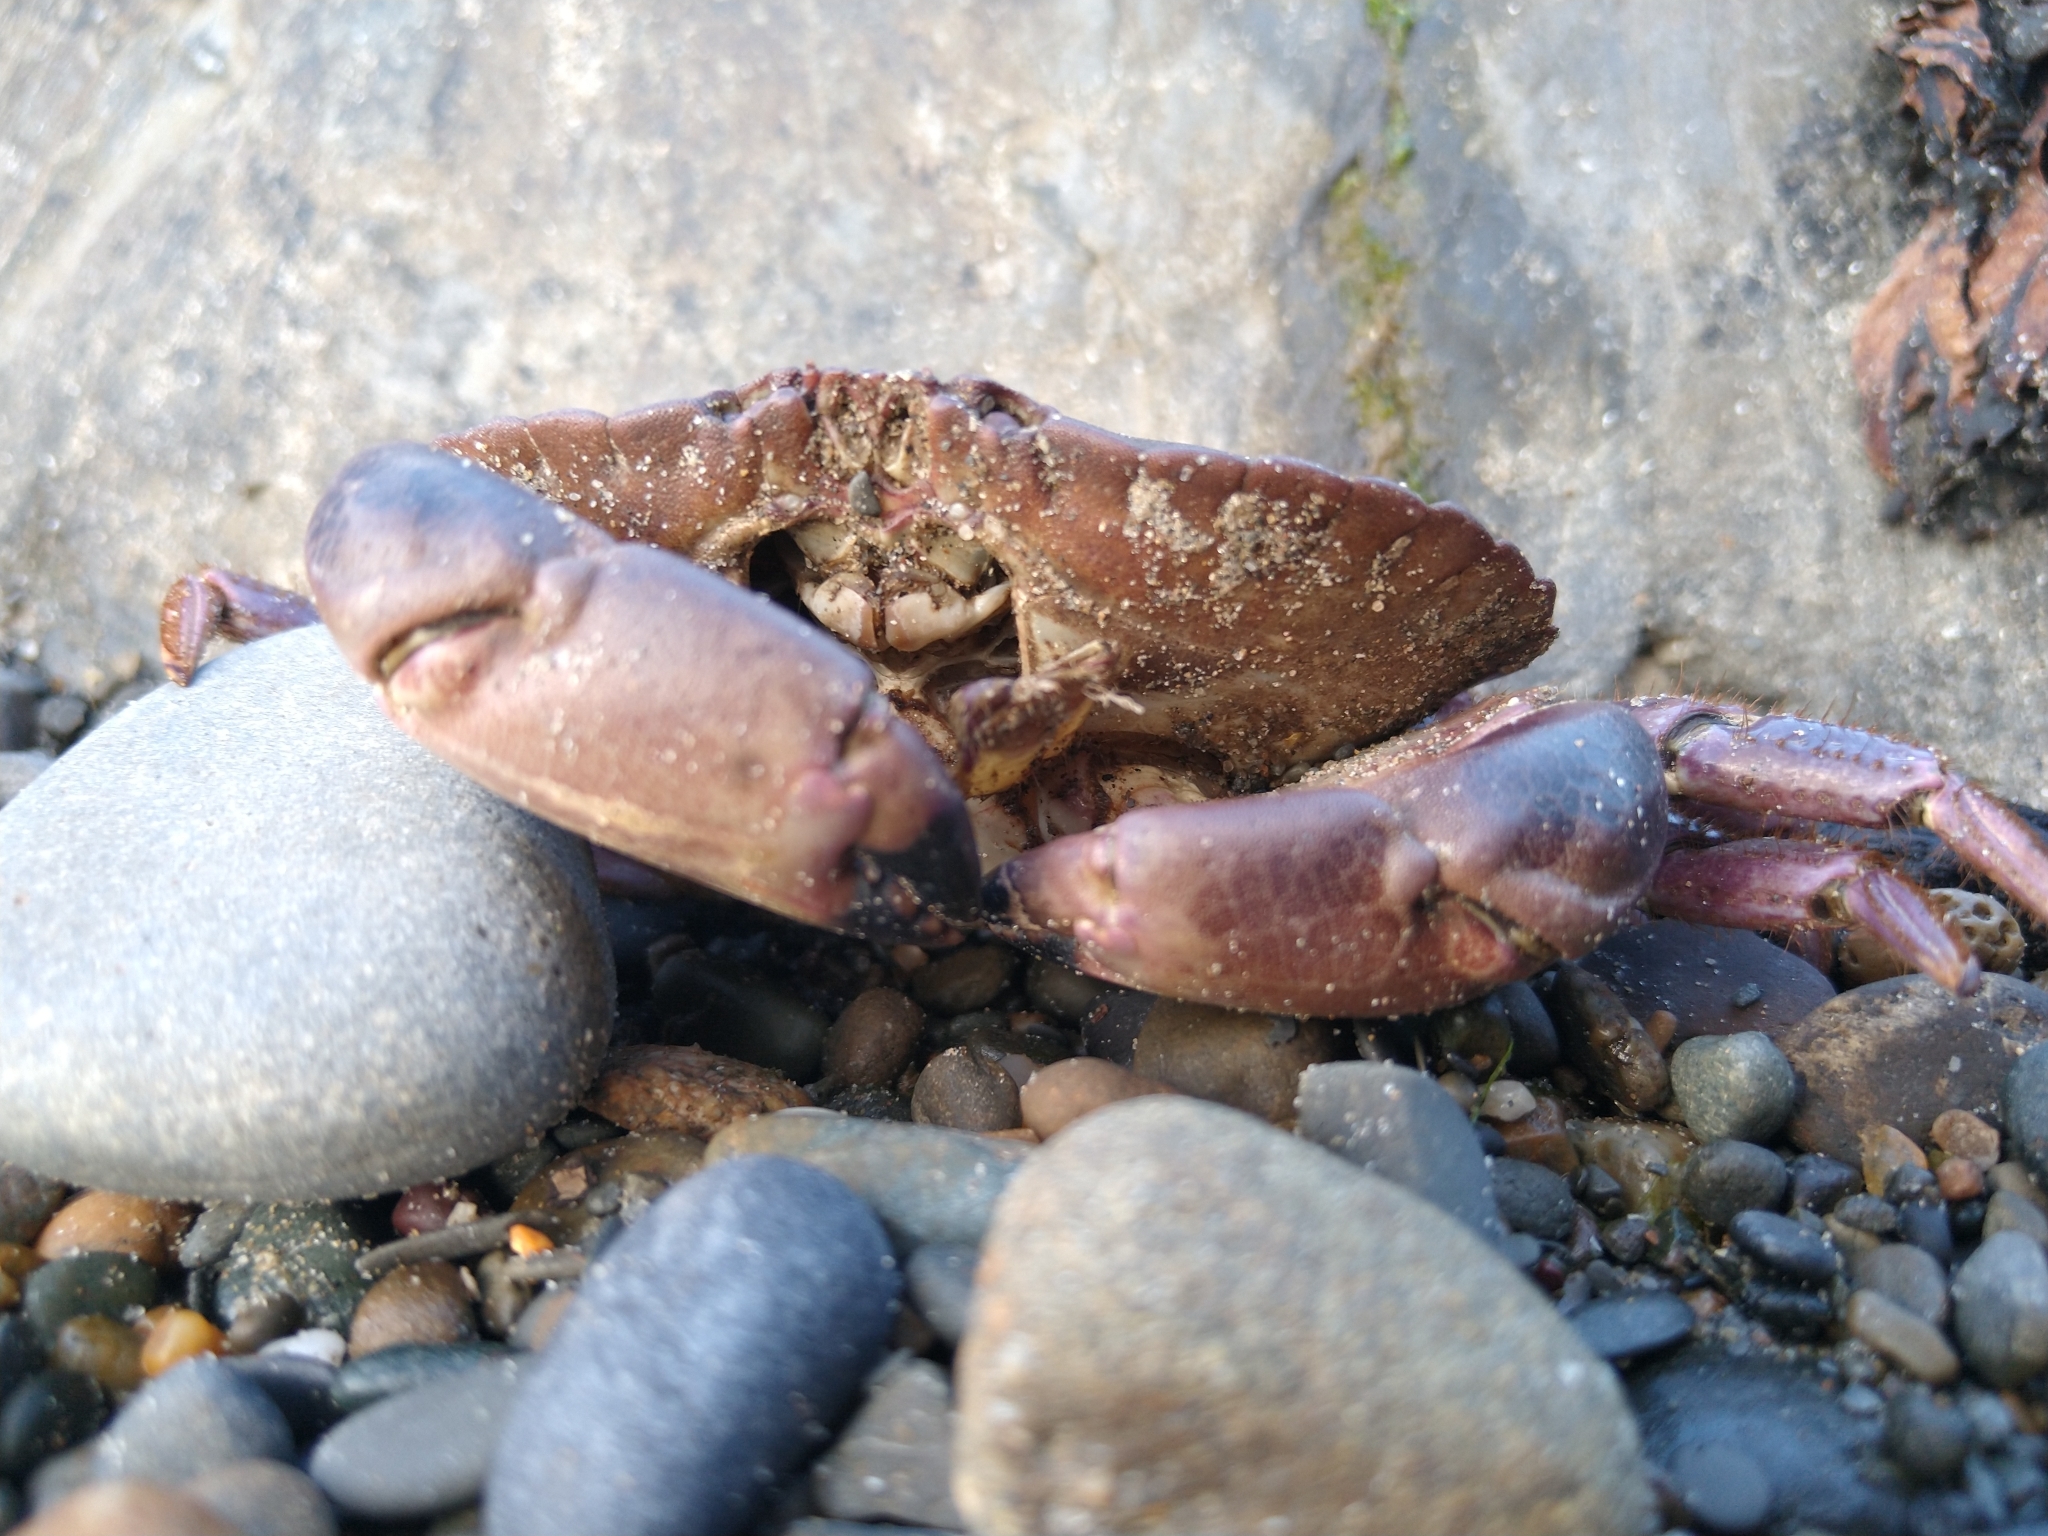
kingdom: Animalia
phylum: Arthropoda
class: Malacostraca
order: Decapoda
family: Cancridae
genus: Cancer
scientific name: Cancer pagurus
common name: Edible crab
